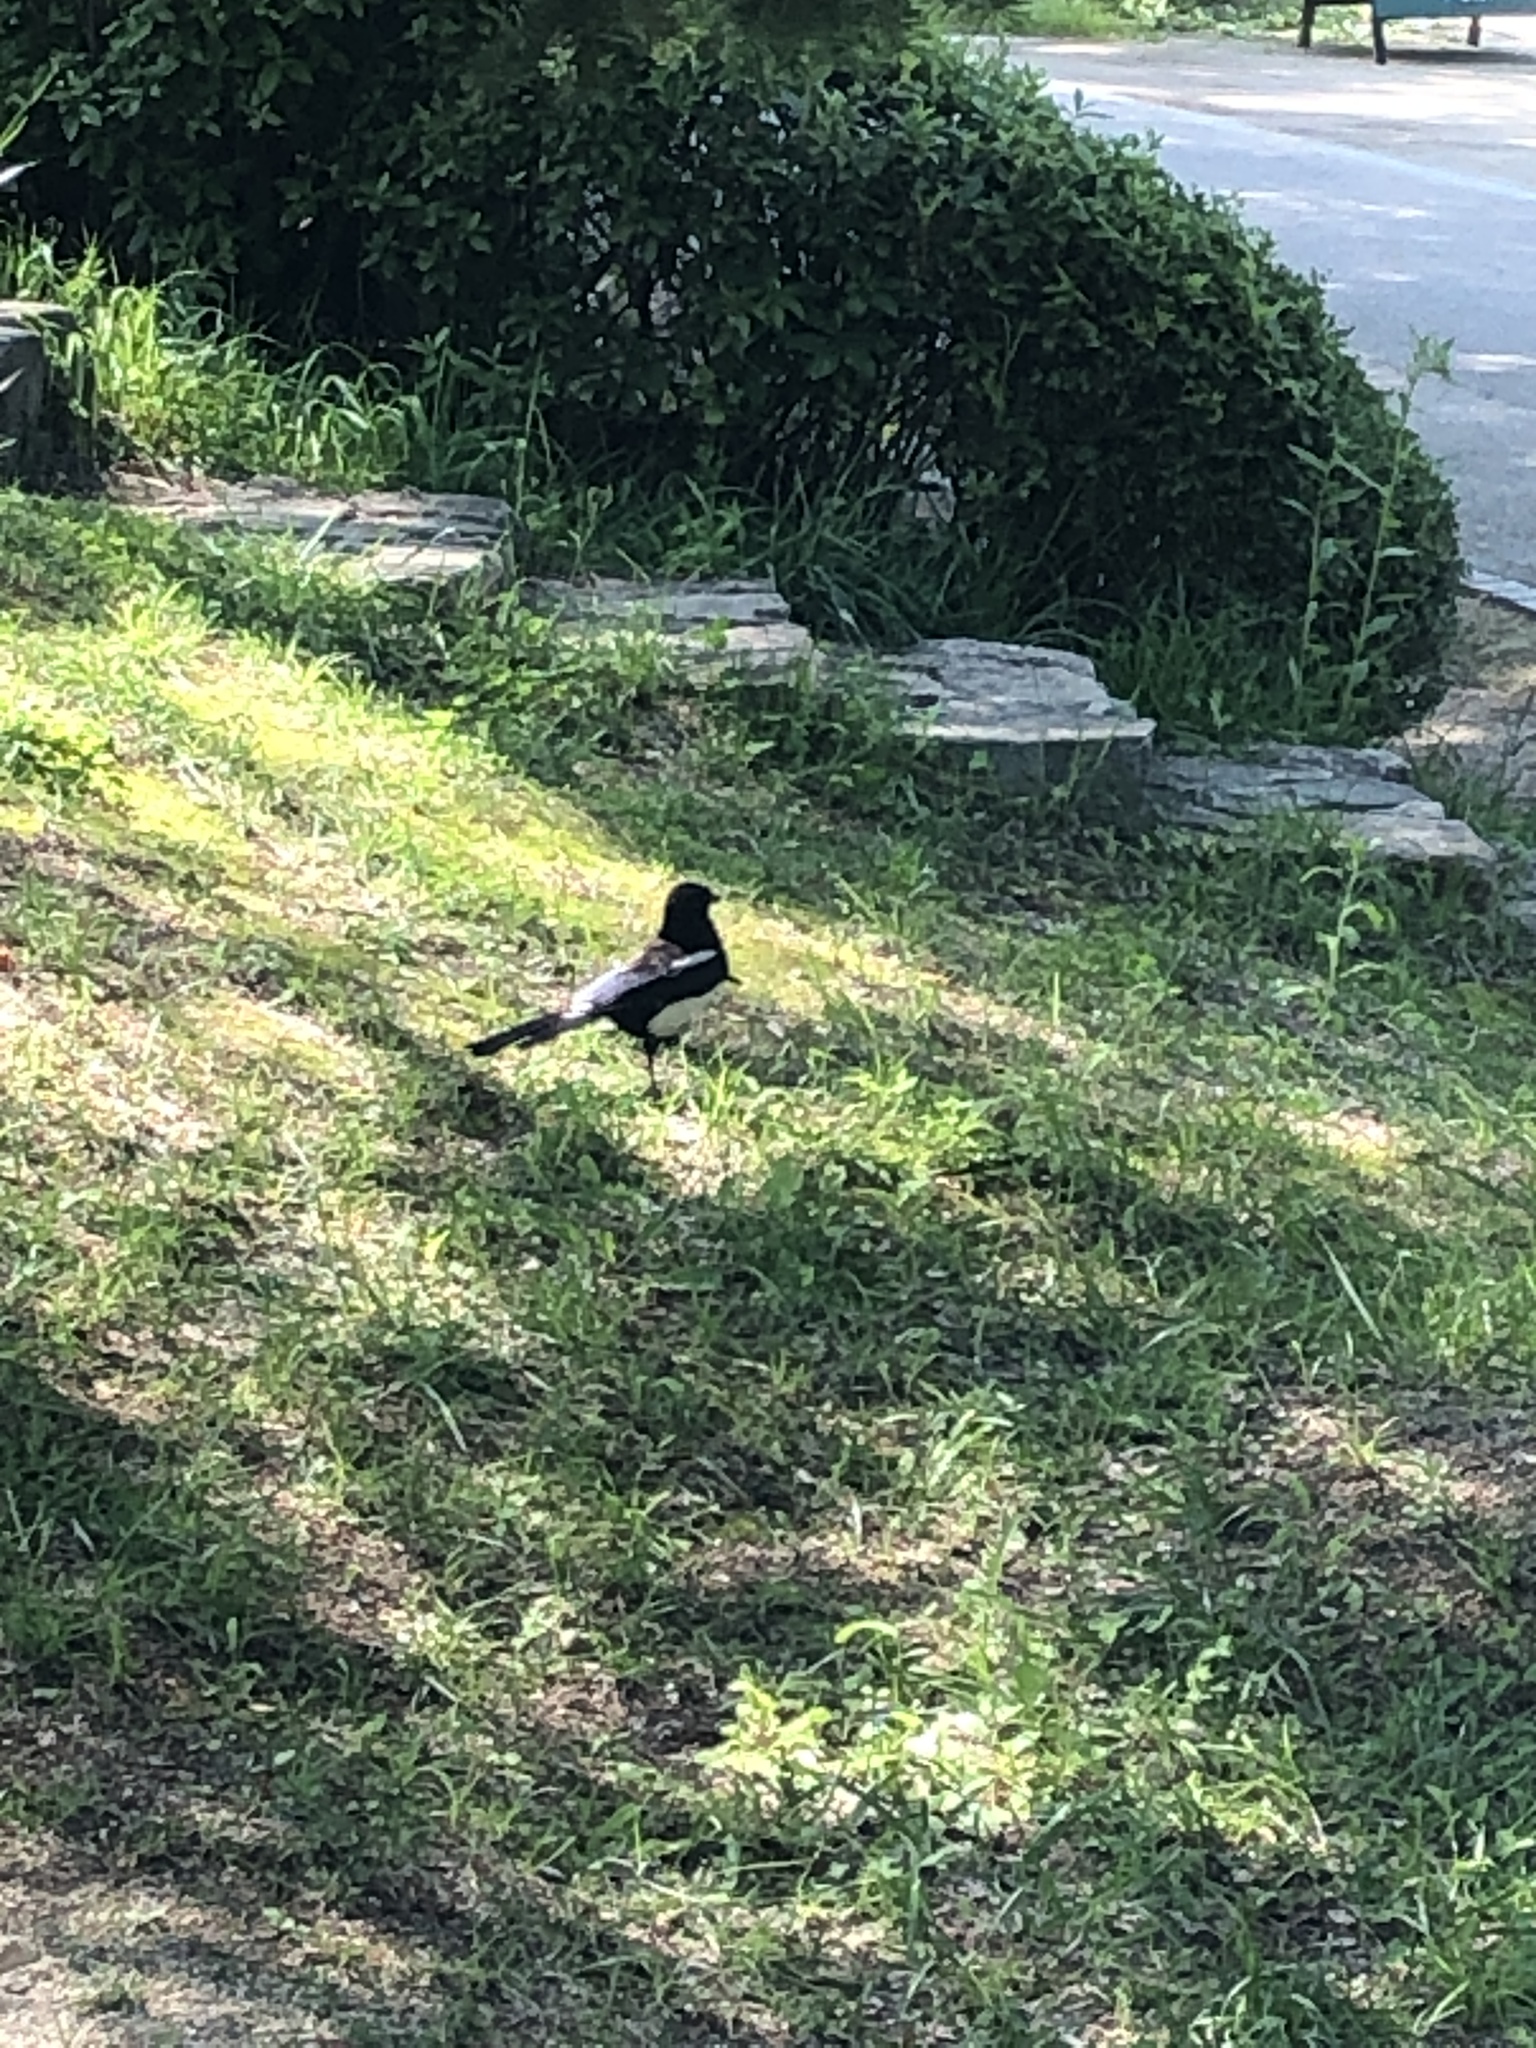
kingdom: Animalia
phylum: Chordata
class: Aves
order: Passeriformes
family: Corvidae
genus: Pica
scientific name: Pica serica
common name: Oriental magpie
